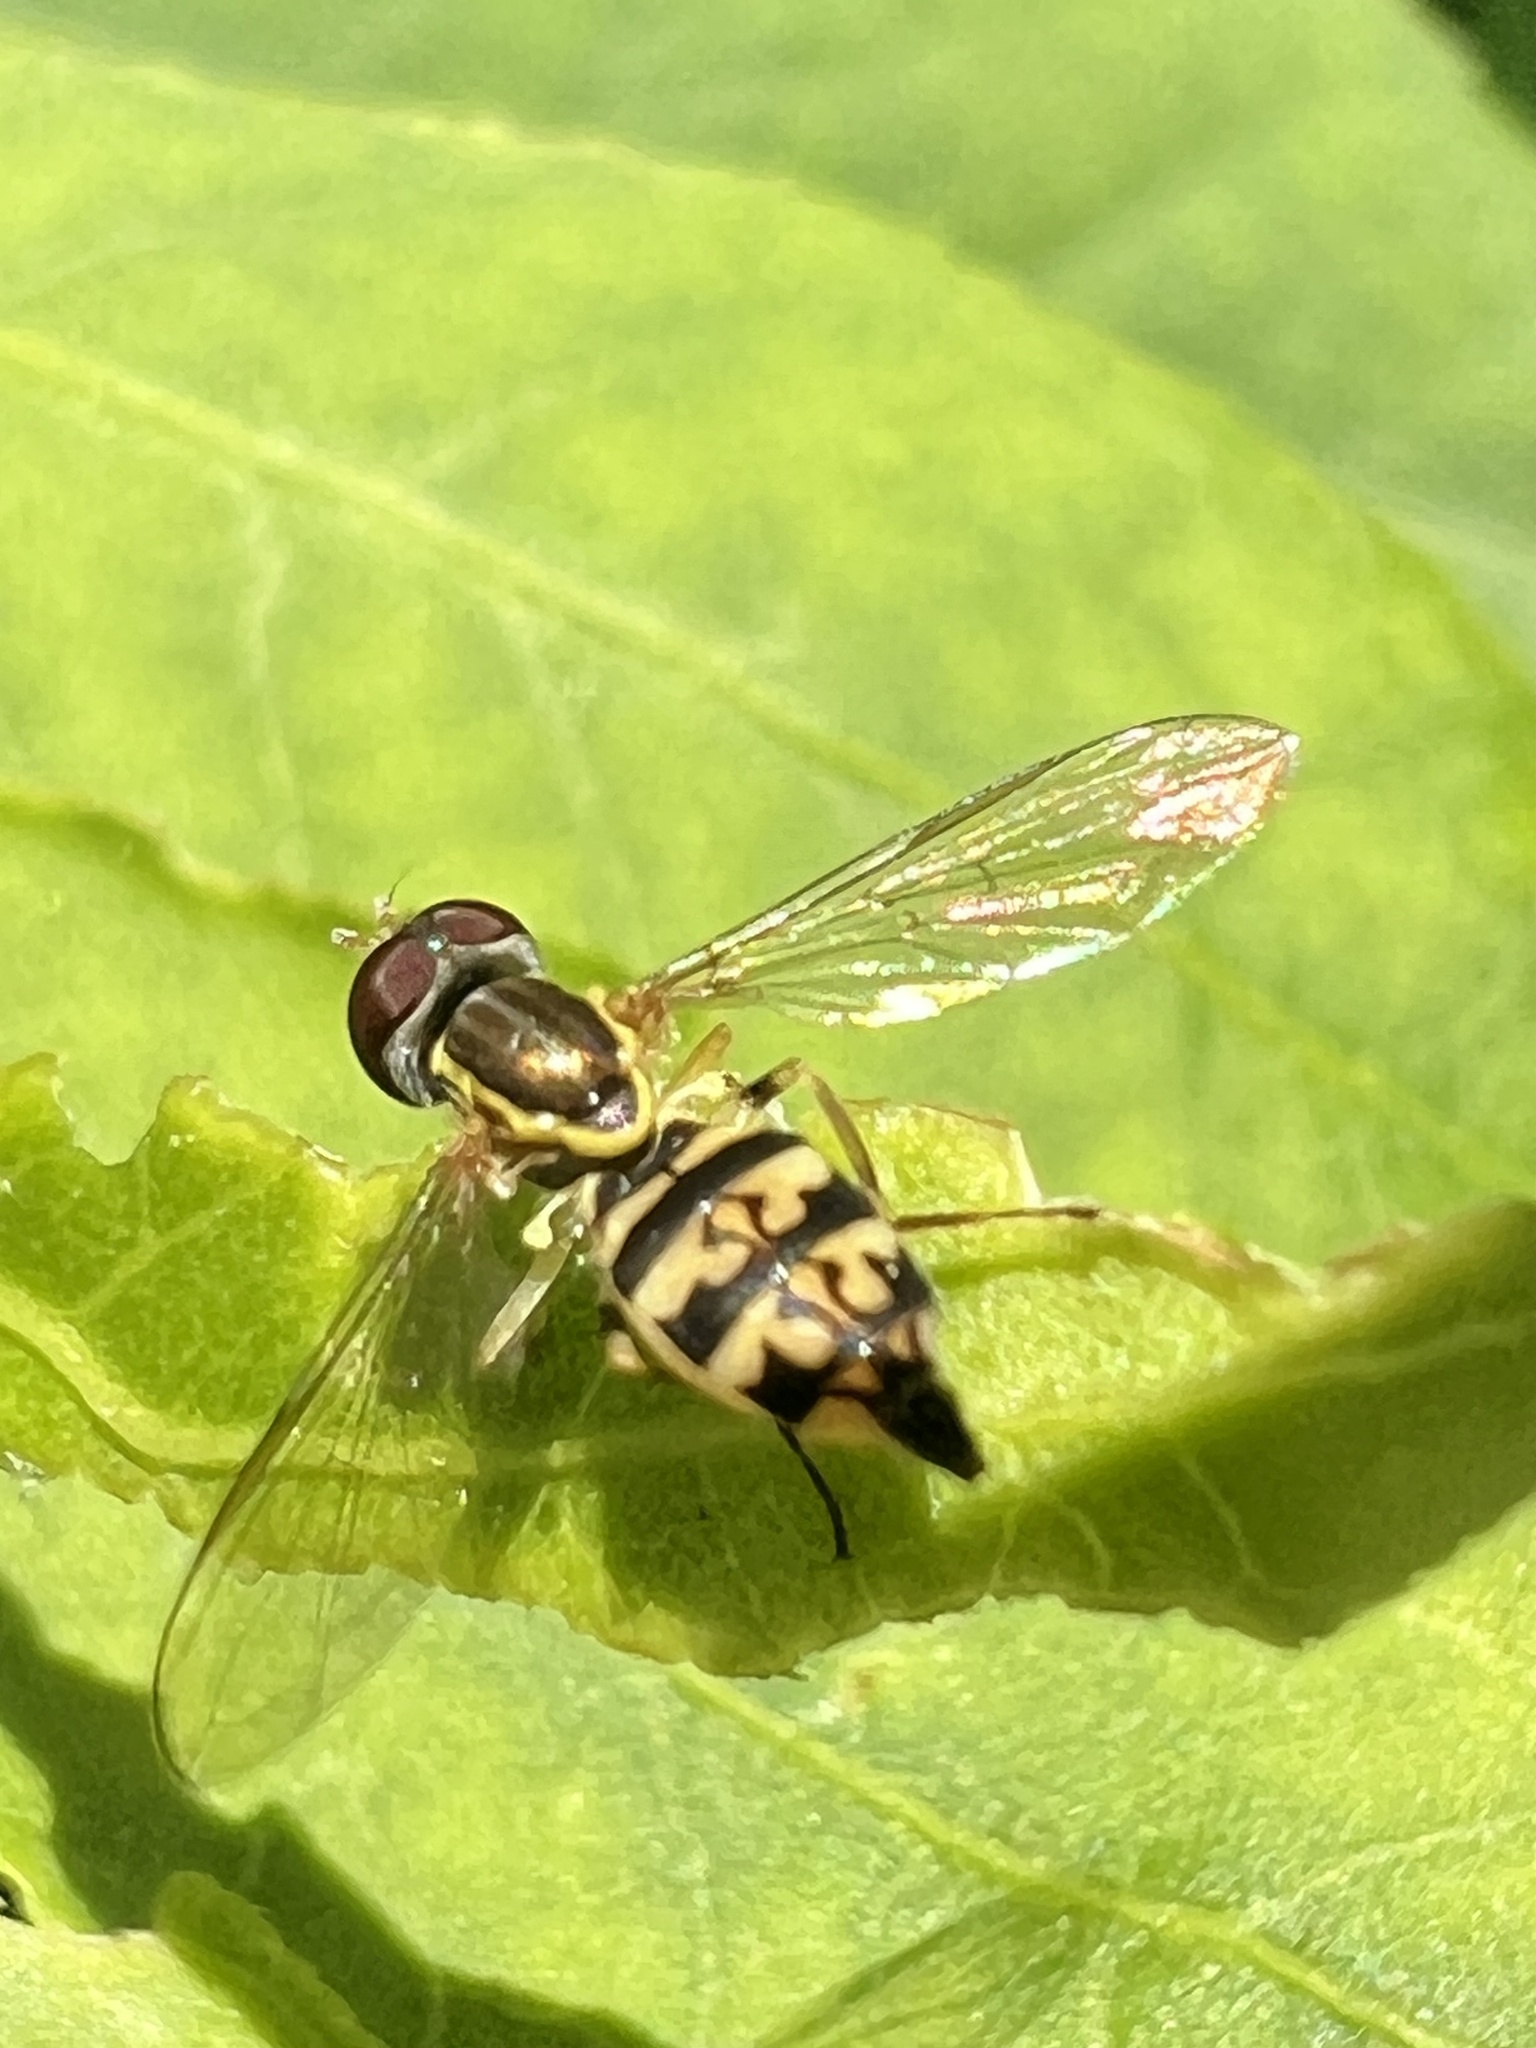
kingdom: Animalia
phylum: Arthropoda
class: Insecta
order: Diptera
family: Syrphidae
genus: Toxomerus
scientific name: Toxomerus geminatus
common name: Eastern calligrapher
